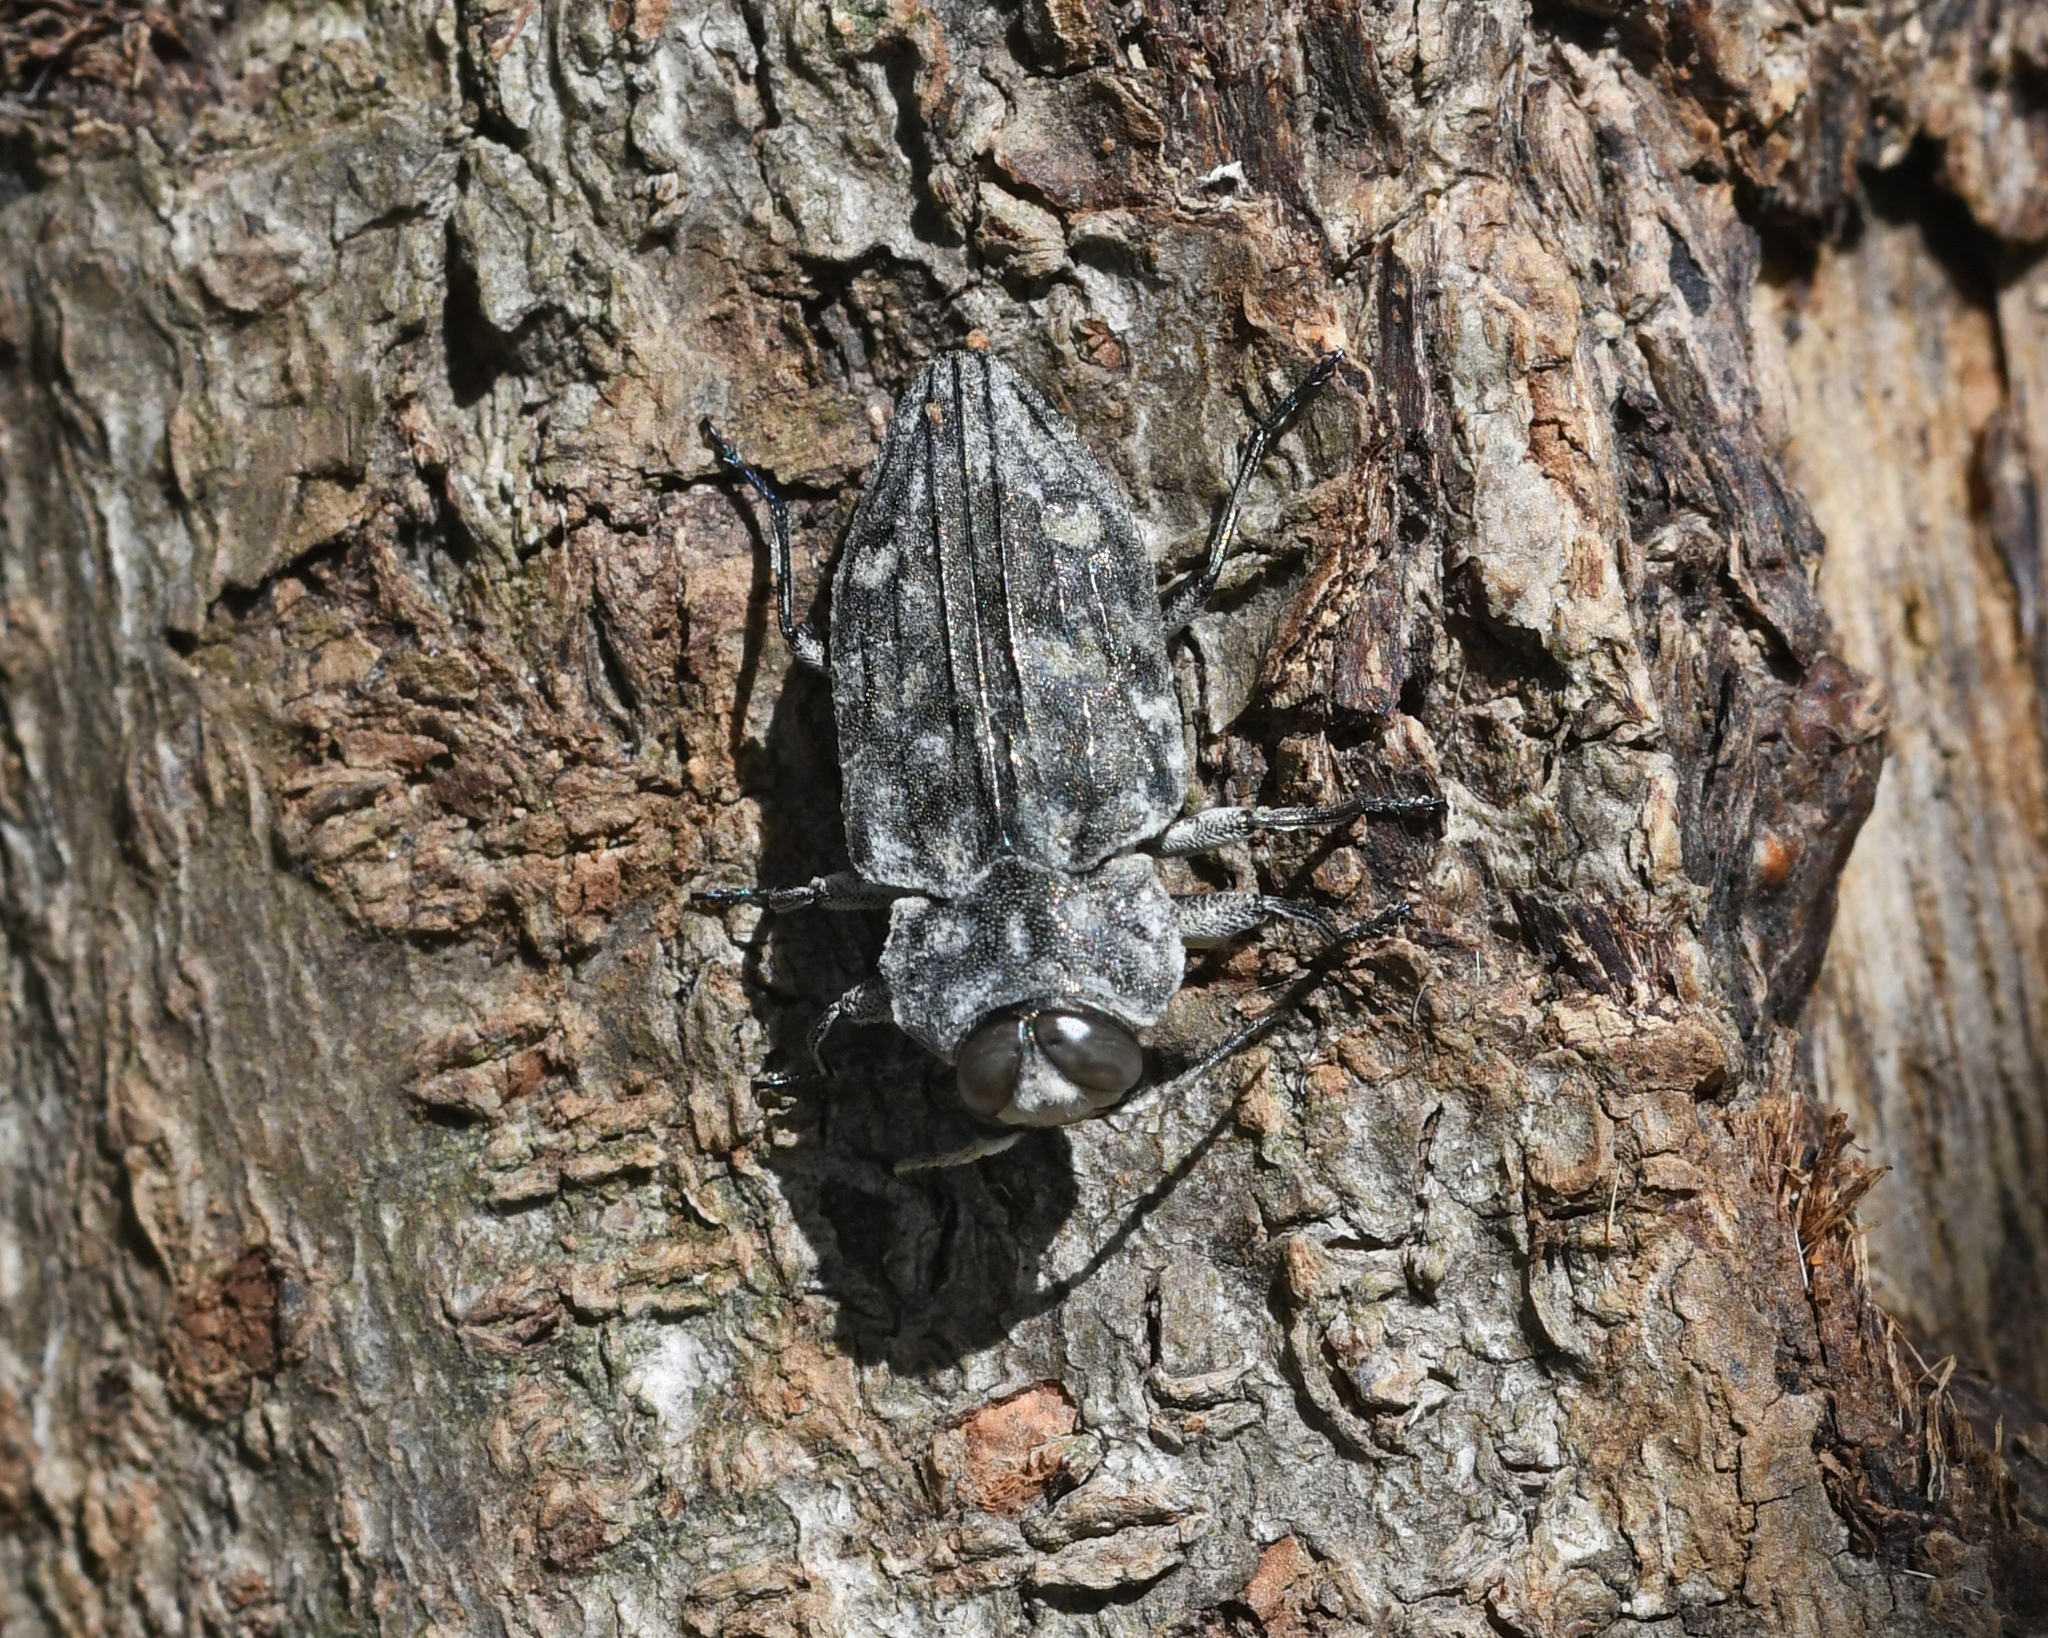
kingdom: Animalia
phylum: Arthropoda
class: Insecta
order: Coleoptera
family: Buprestidae
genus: Chrysobothris
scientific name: Chrysobothris tranquebarica
